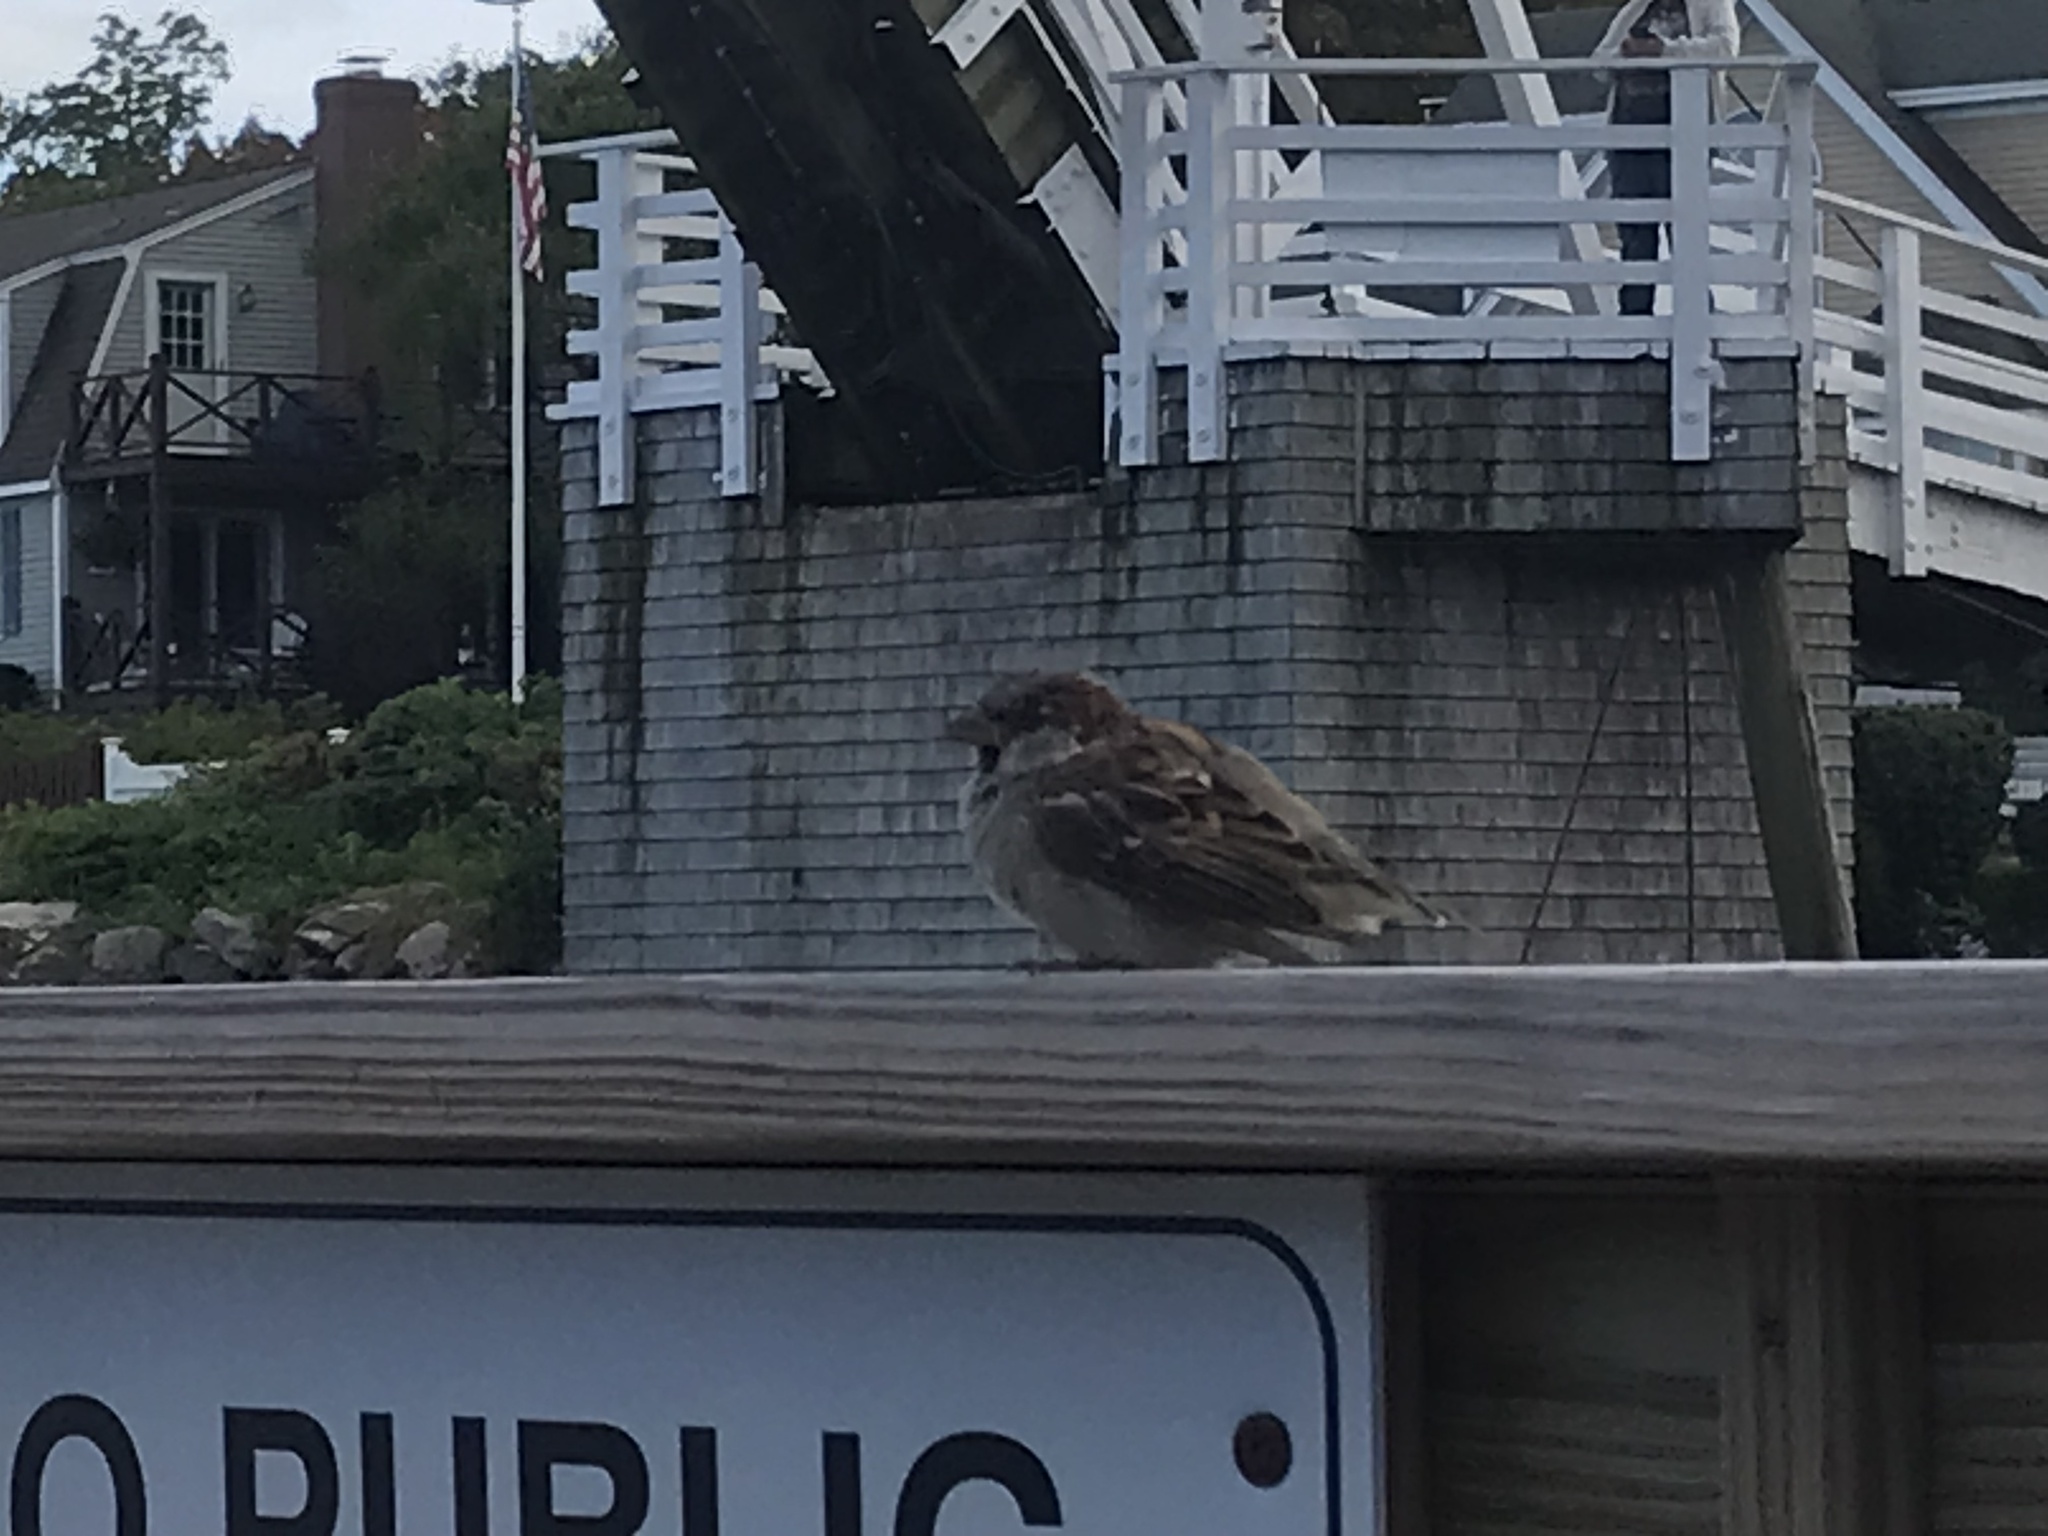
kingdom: Animalia
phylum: Chordata
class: Aves
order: Passeriformes
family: Passeridae
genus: Passer
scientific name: Passer domesticus
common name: House sparrow
